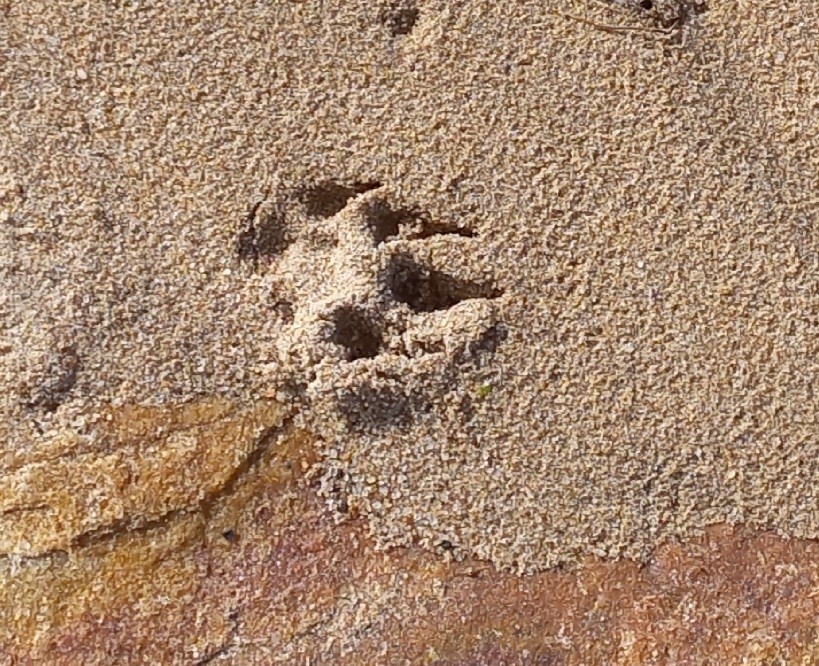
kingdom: Animalia
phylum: Chordata
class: Mammalia
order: Carnivora
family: Herpestidae
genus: Galerella
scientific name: Galerella pulverulenta
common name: Cape gray mongoose
